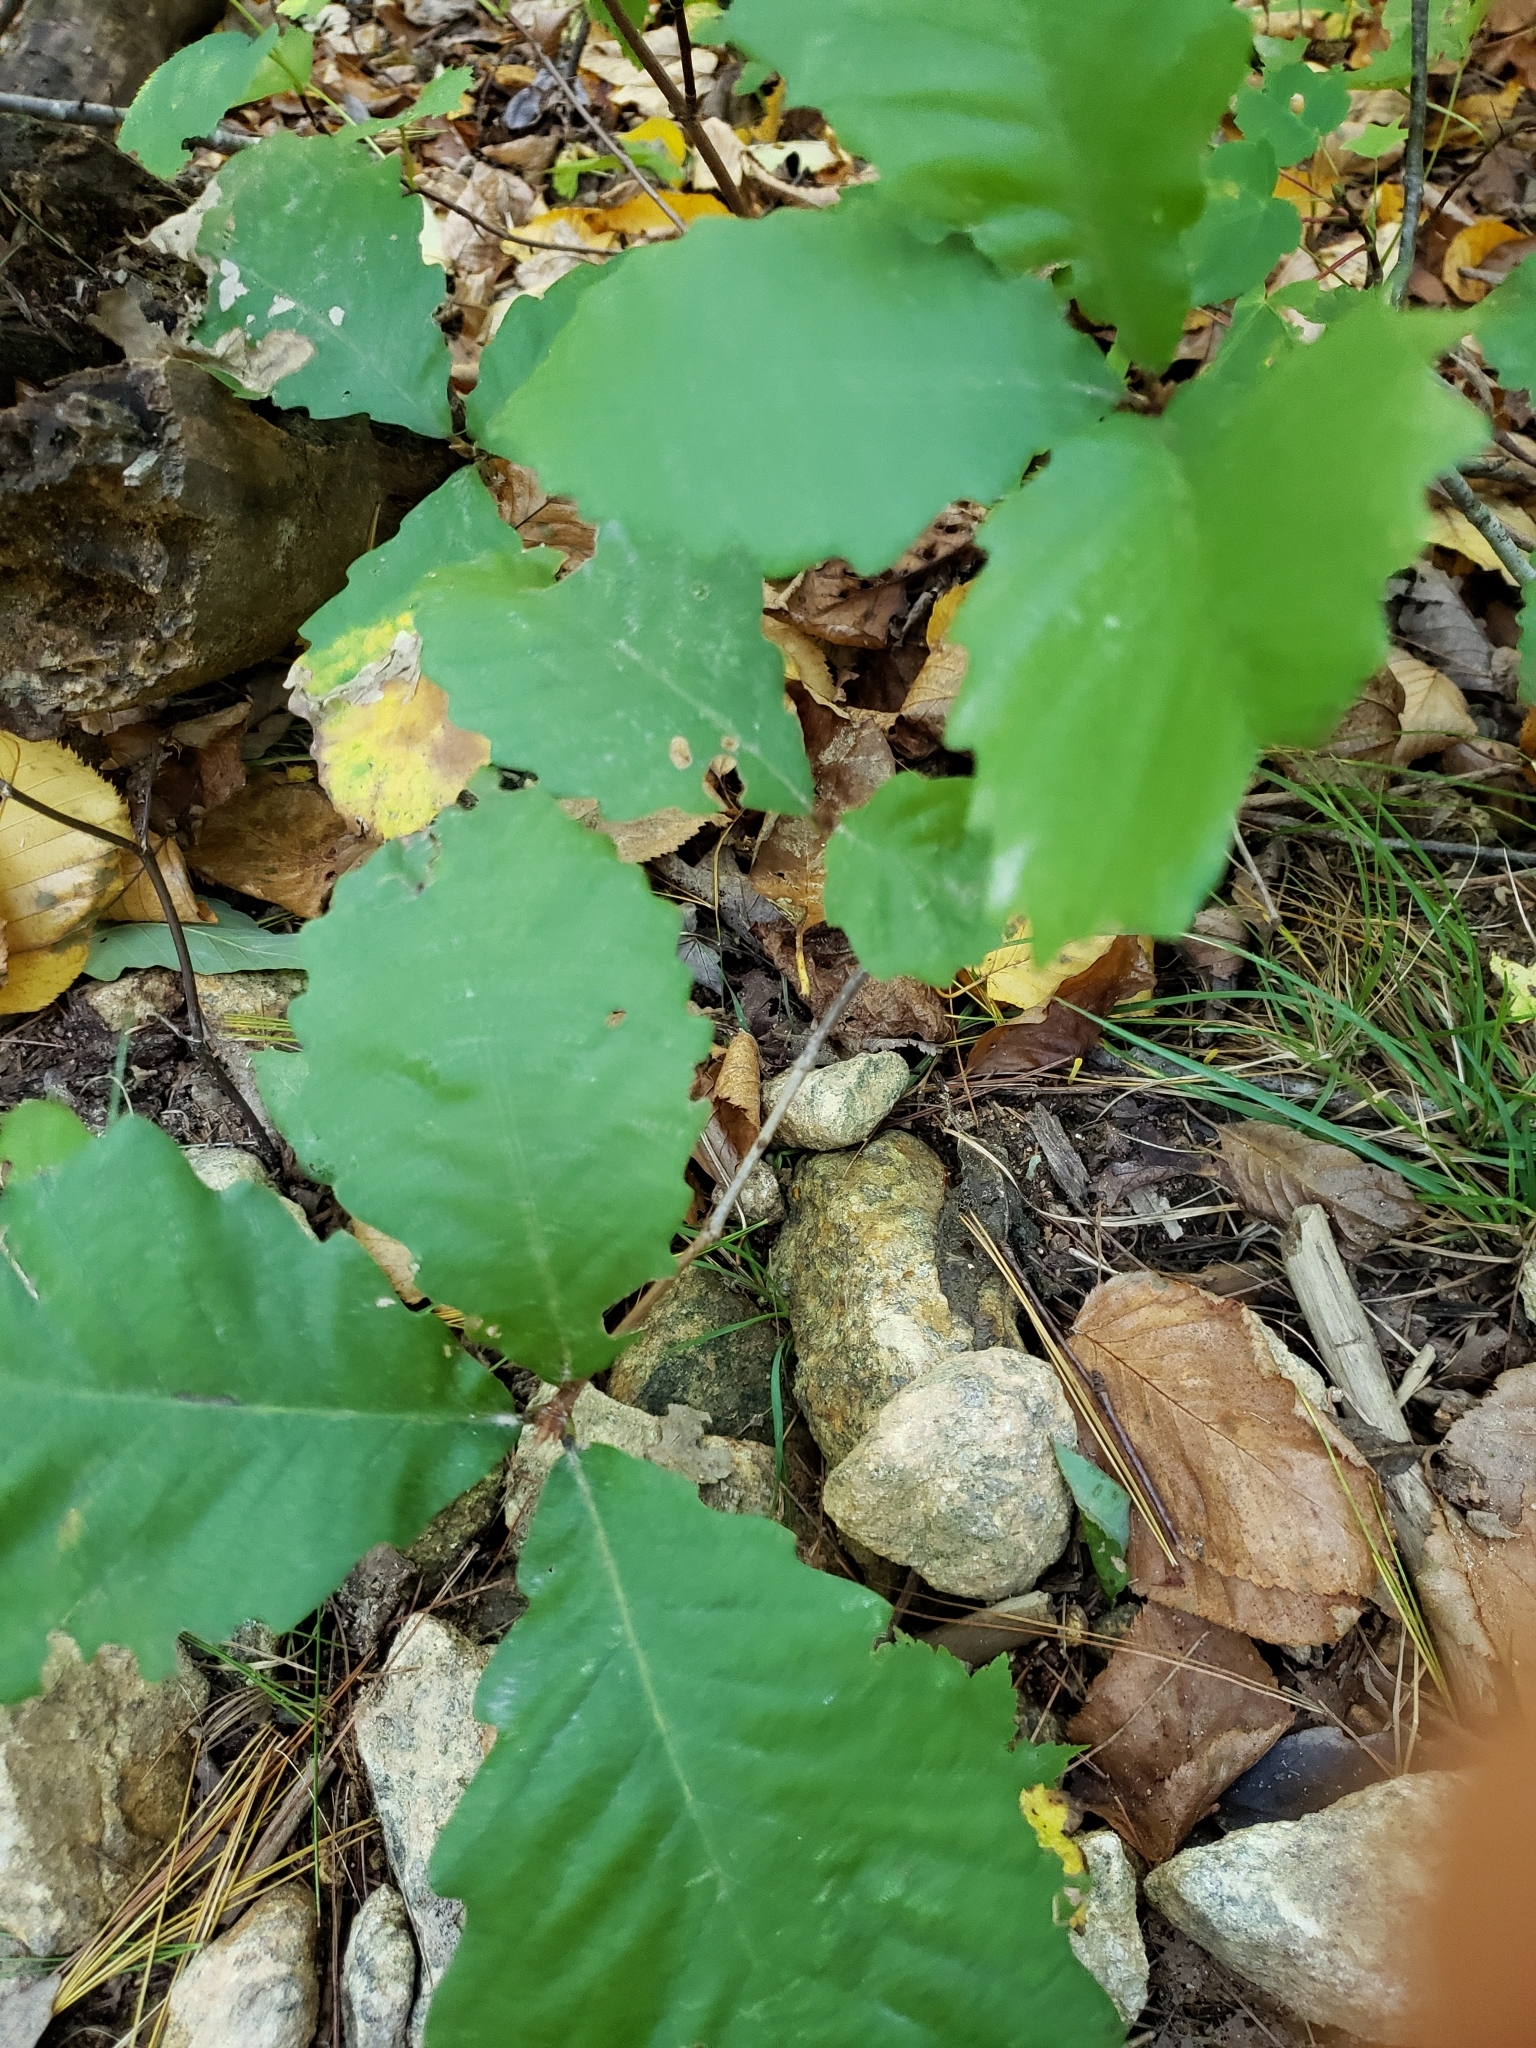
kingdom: Plantae
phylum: Tracheophyta
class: Magnoliopsida
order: Fagales
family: Fagaceae
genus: Quercus
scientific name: Quercus montana
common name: Chestnut oak
